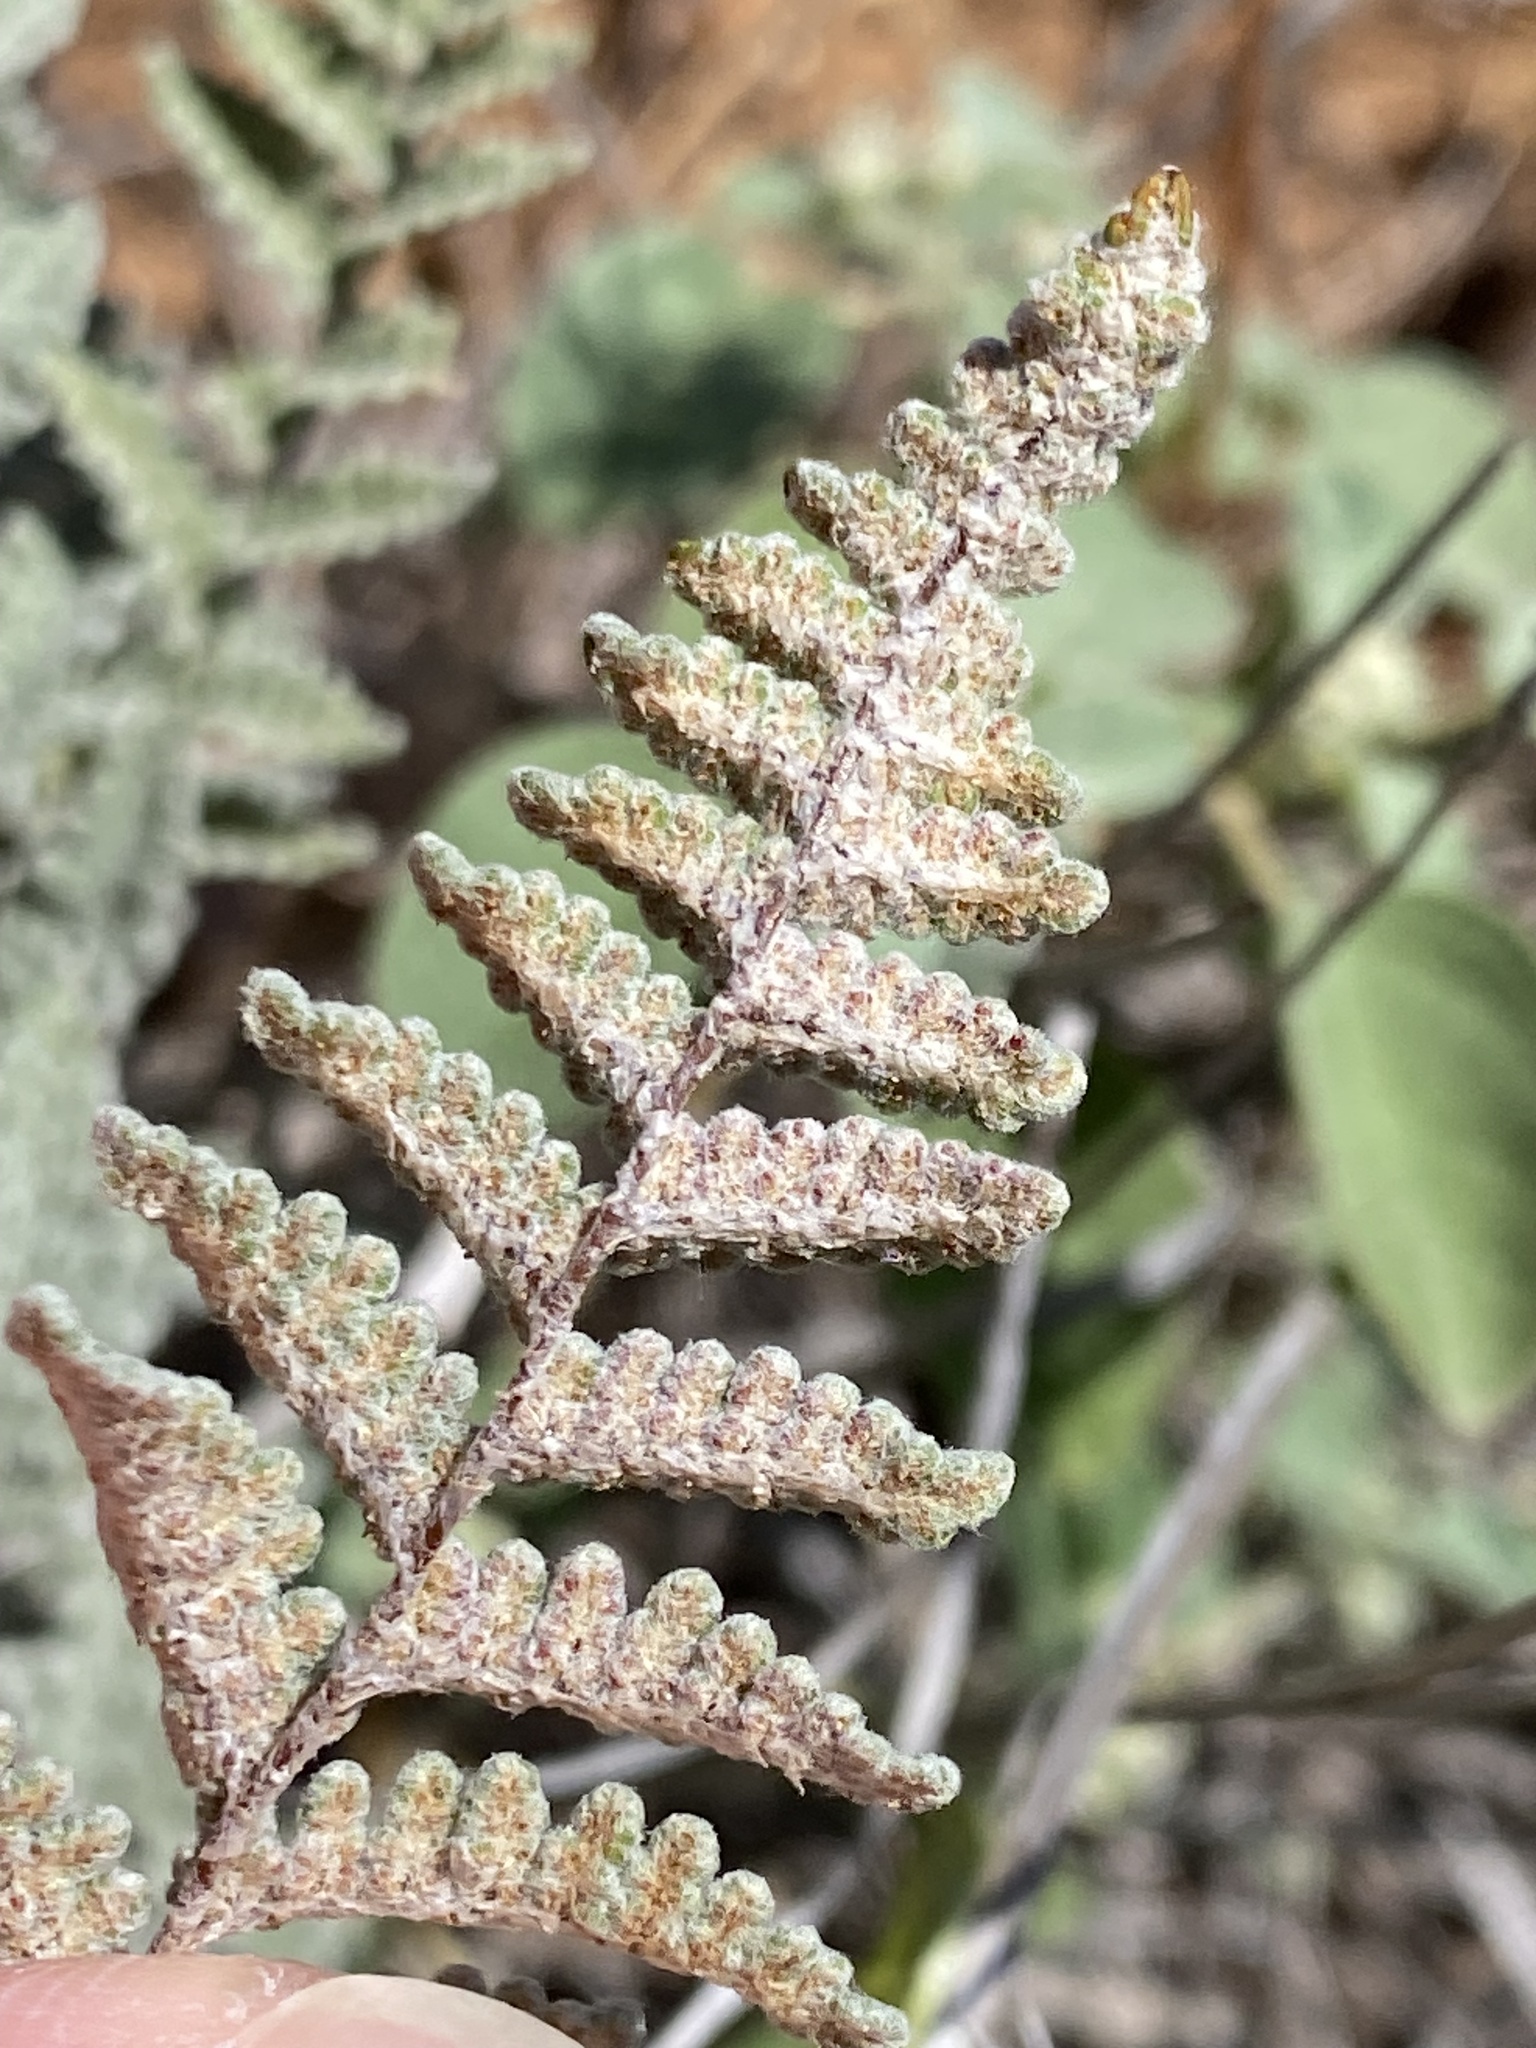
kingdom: Plantae
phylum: Tracheophyta
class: Polypodiopsida
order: Polypodiales
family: Pteridaceae
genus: Myriopteris
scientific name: Myriopteris rufa
